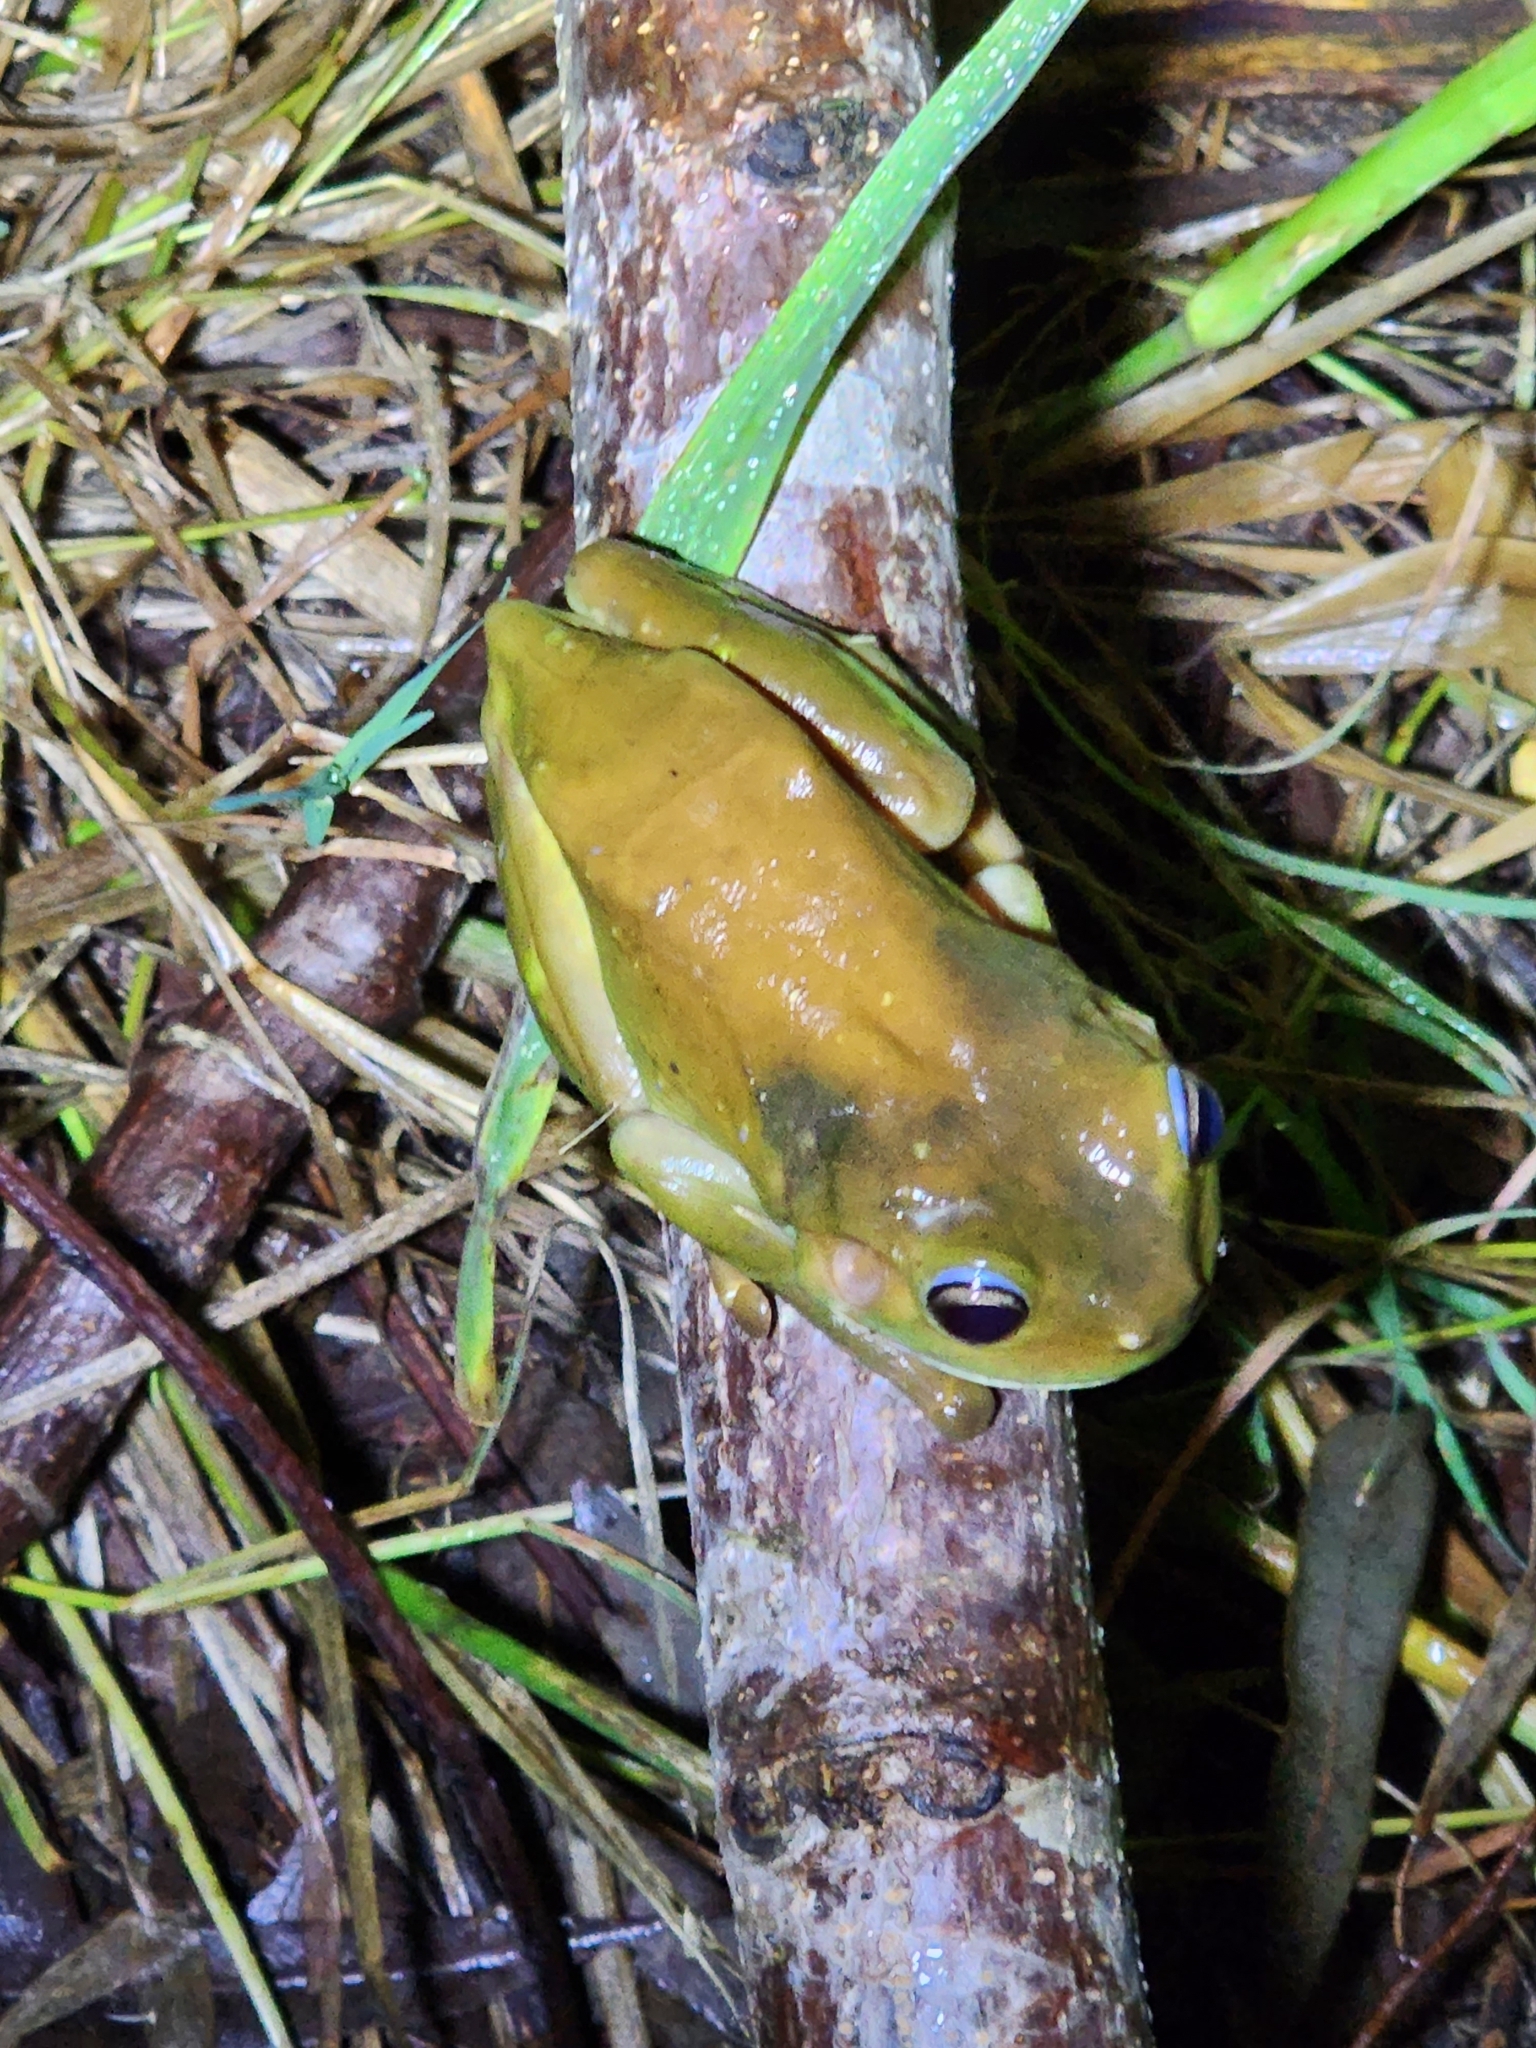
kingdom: Animalia
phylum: Chordata
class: Amphibia
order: Anura
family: Pelodryadidae
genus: Ranoidea
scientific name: Ranoidea caerulea
